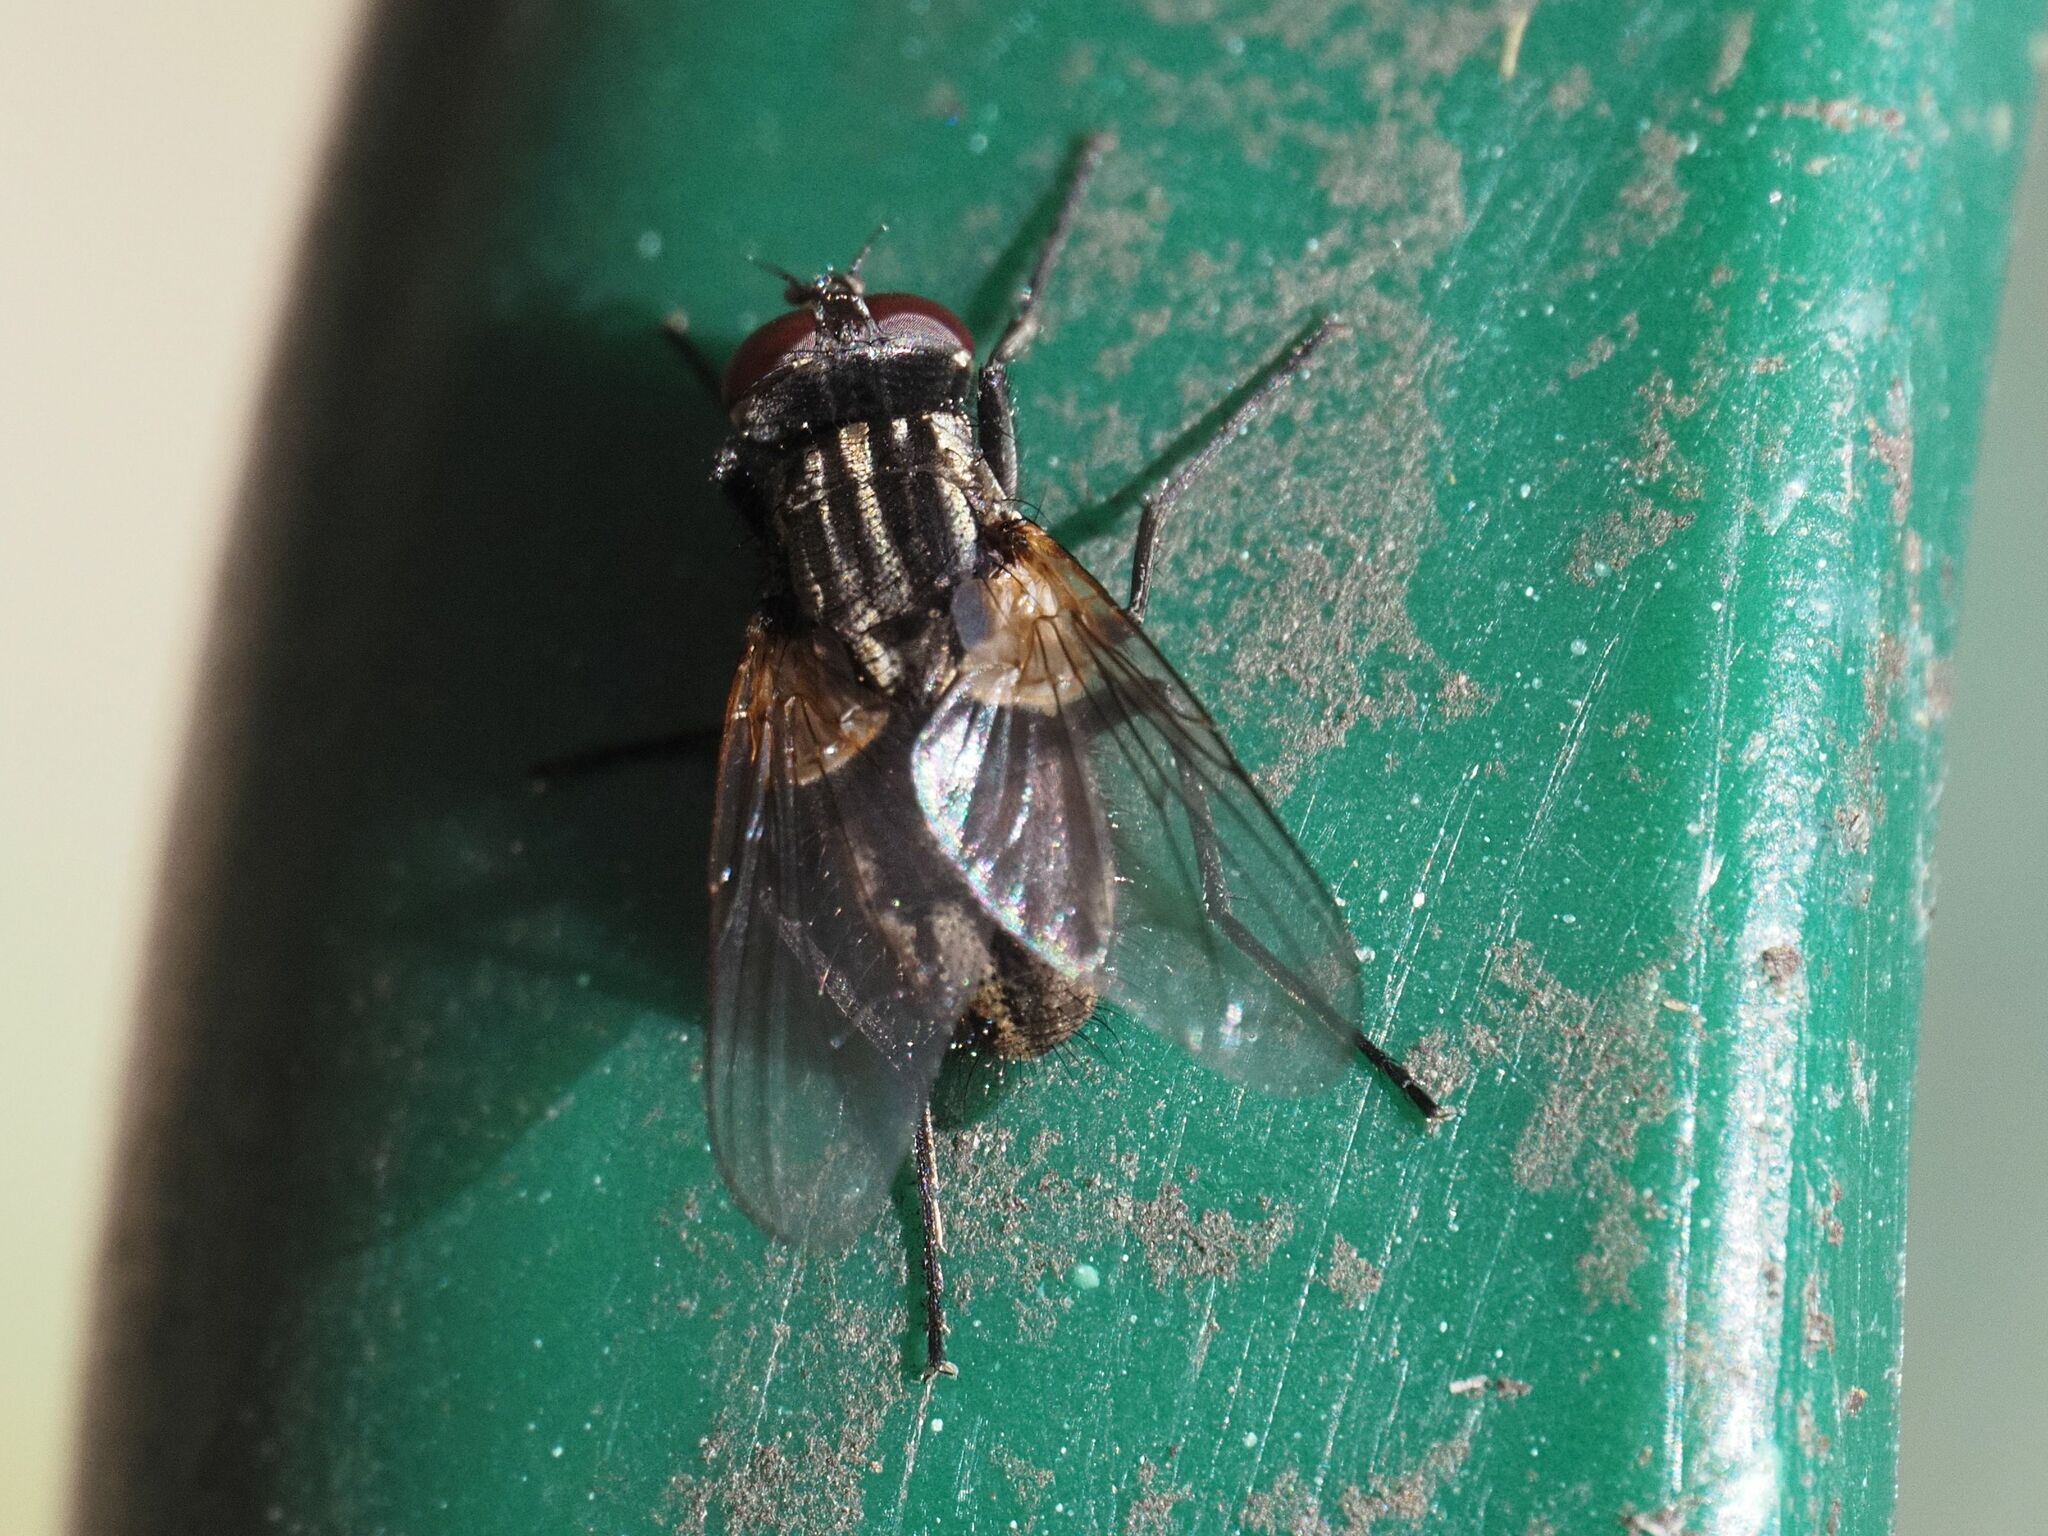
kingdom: Animalia
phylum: Arthropoda
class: Insecta
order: Diptera
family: Muscidae
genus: Musca
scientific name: Musca domestica
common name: House fly
